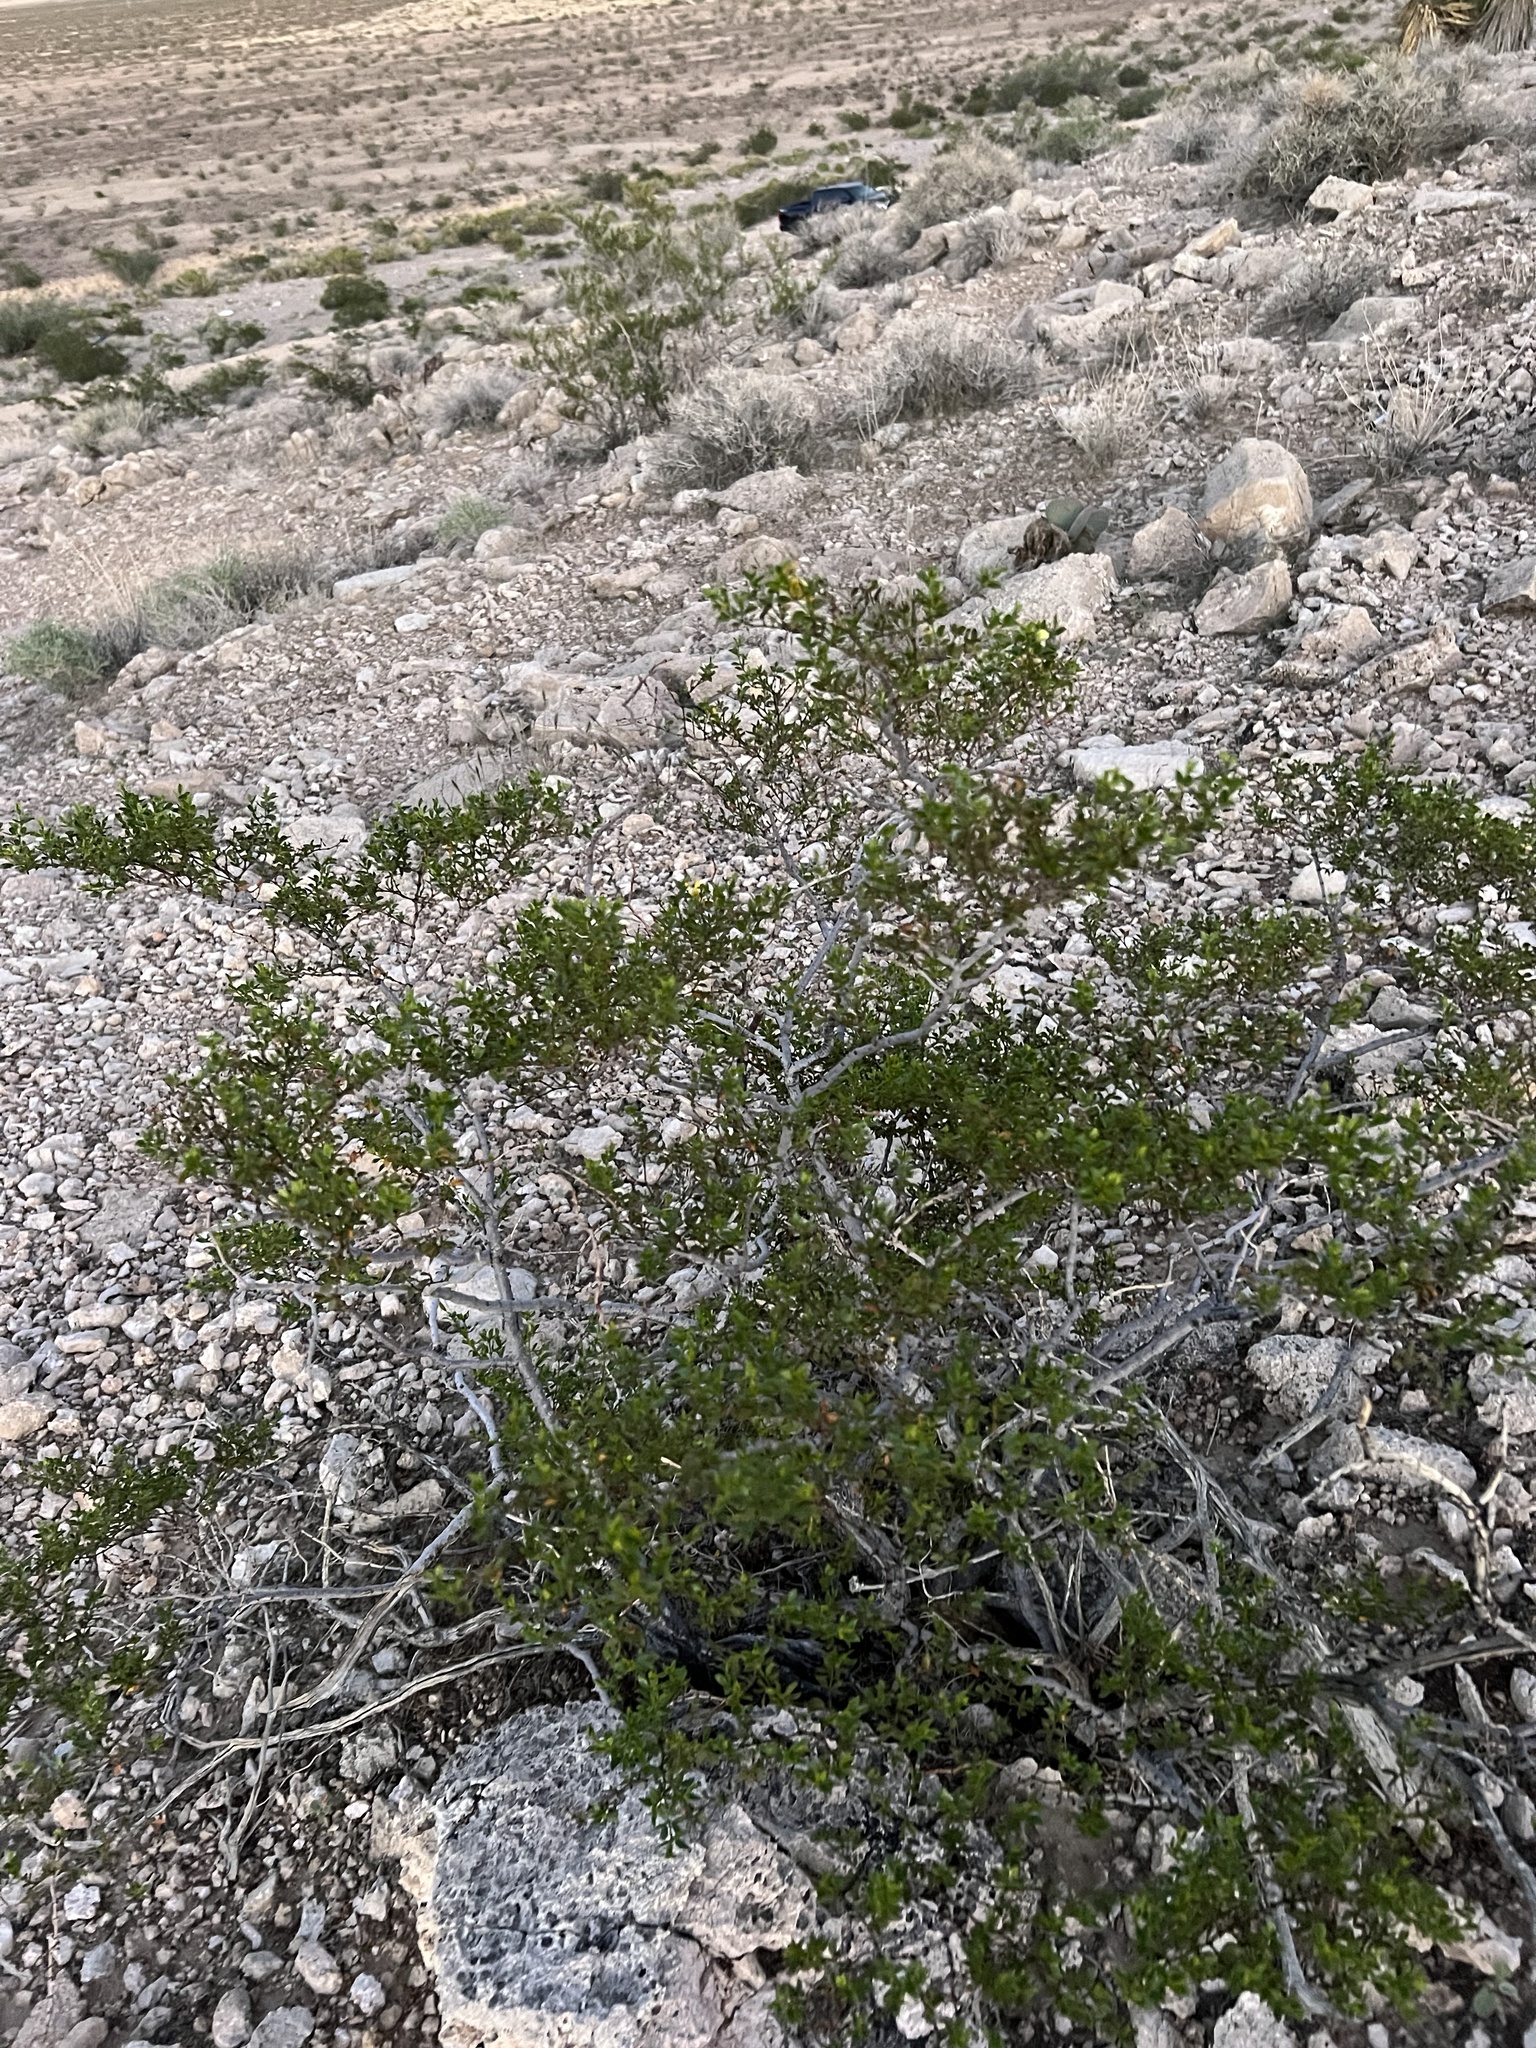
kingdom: Plantae
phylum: Tracheophyta
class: Magnoliopsida
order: Zygophyllales
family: Zygophyllaceae
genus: Larrea
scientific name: Larrea tridentata
